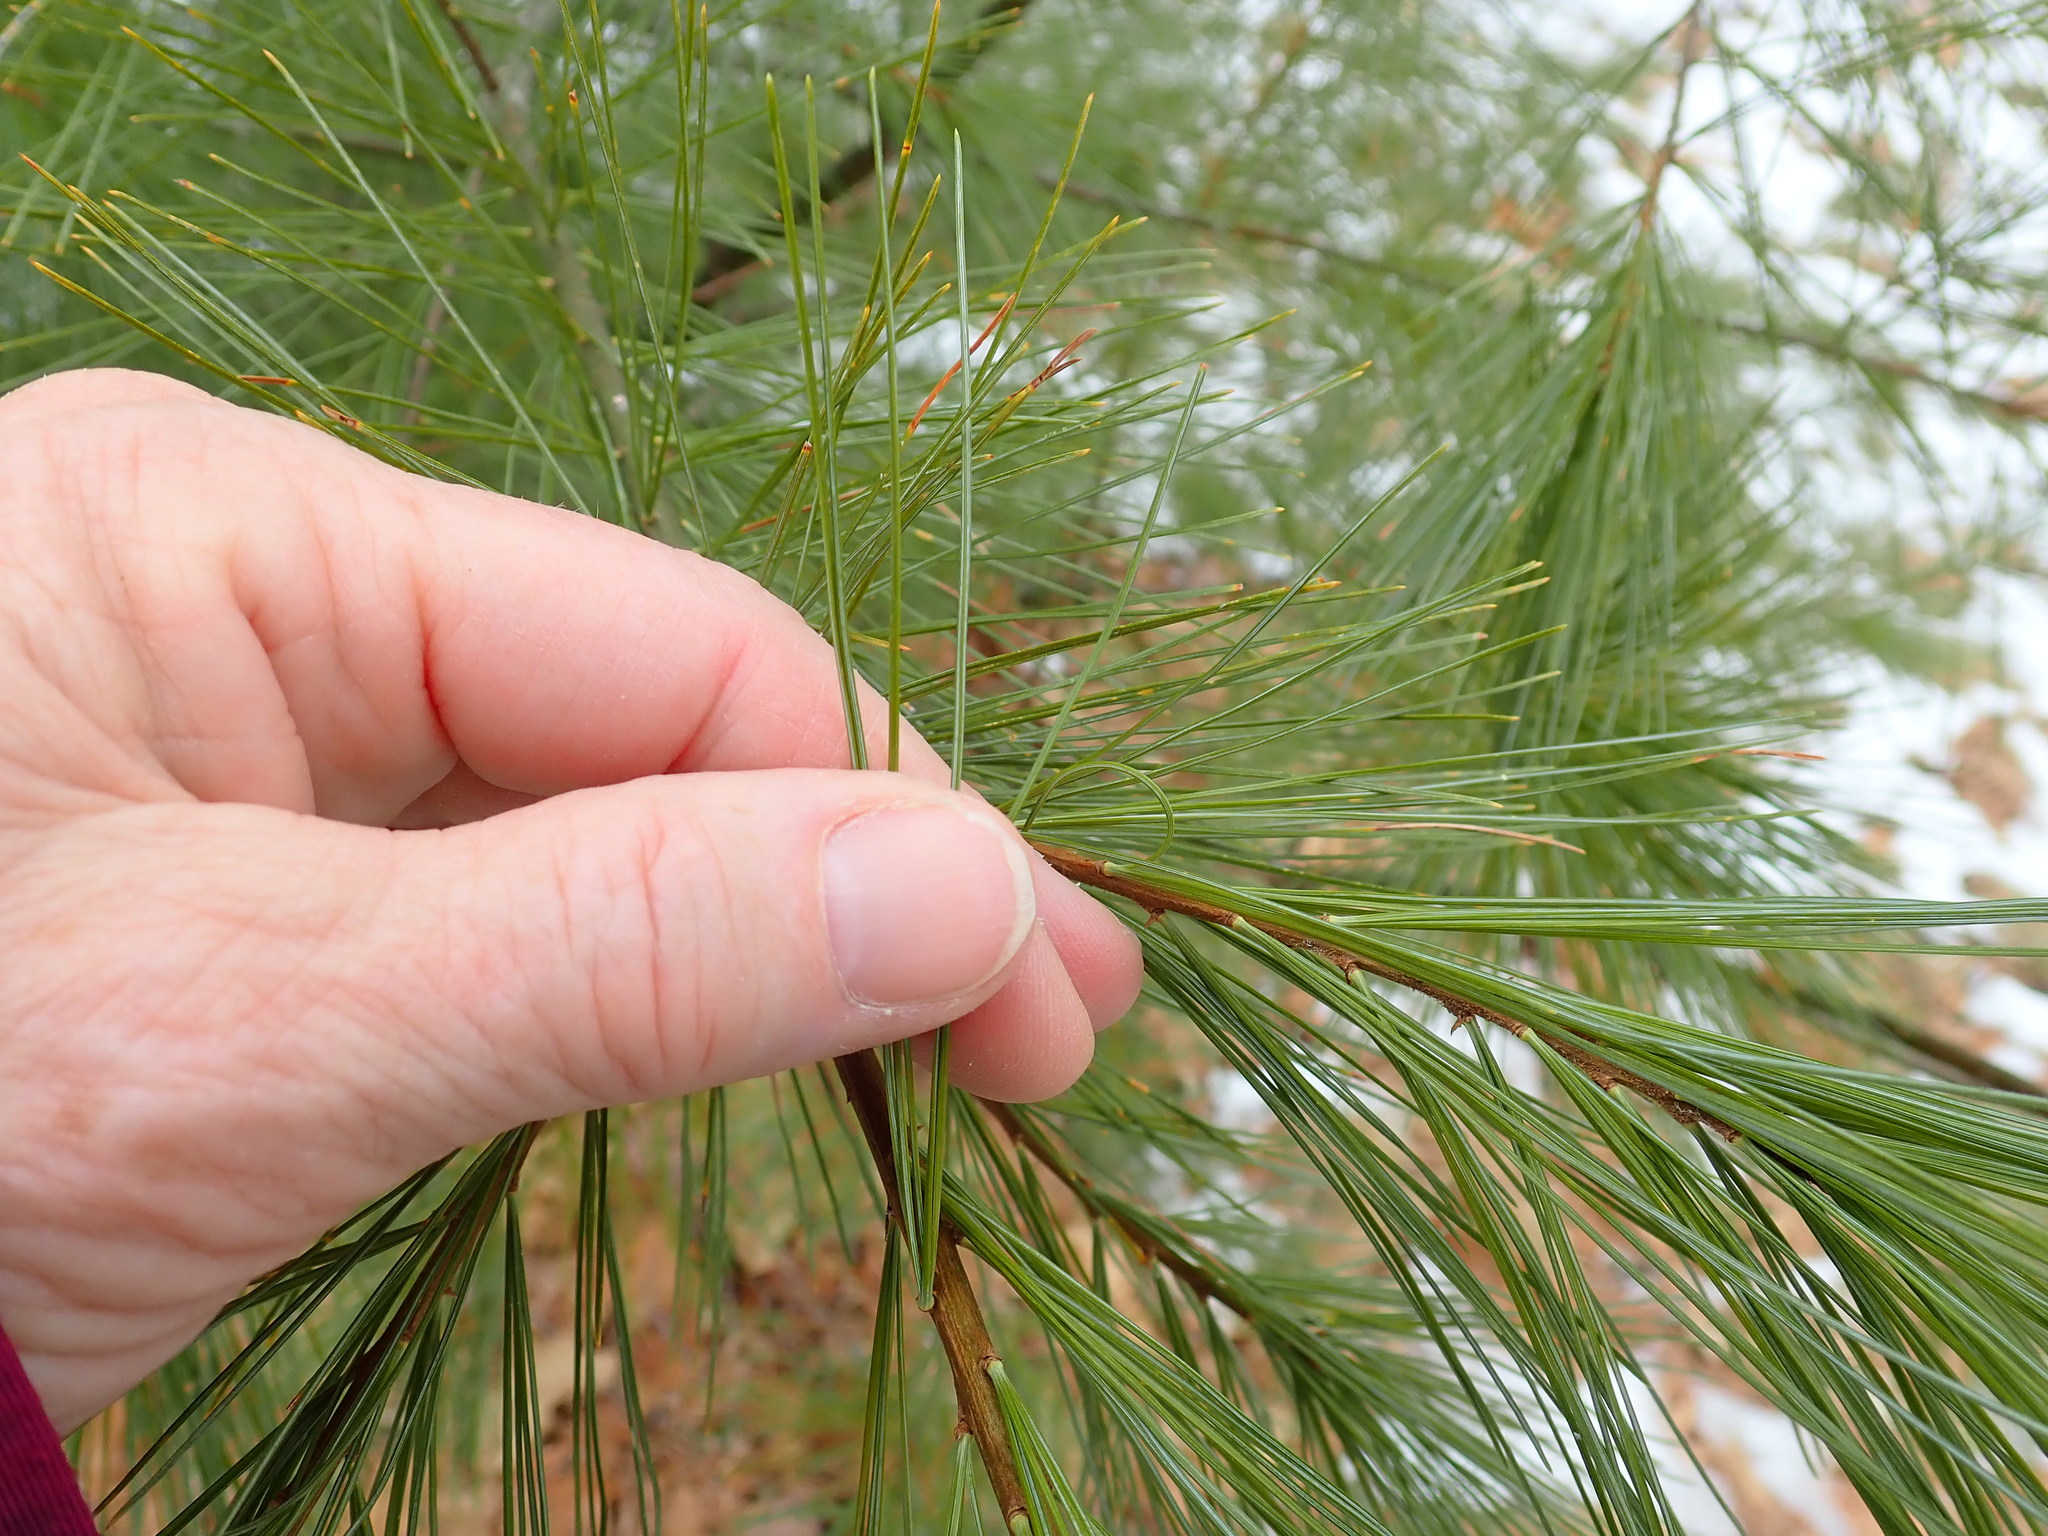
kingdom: Plantae
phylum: Tracheophyta
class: Pinopsida
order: Pinales
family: Pinaceae
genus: Pinus
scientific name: Pinus strobus
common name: Weymouth pine
